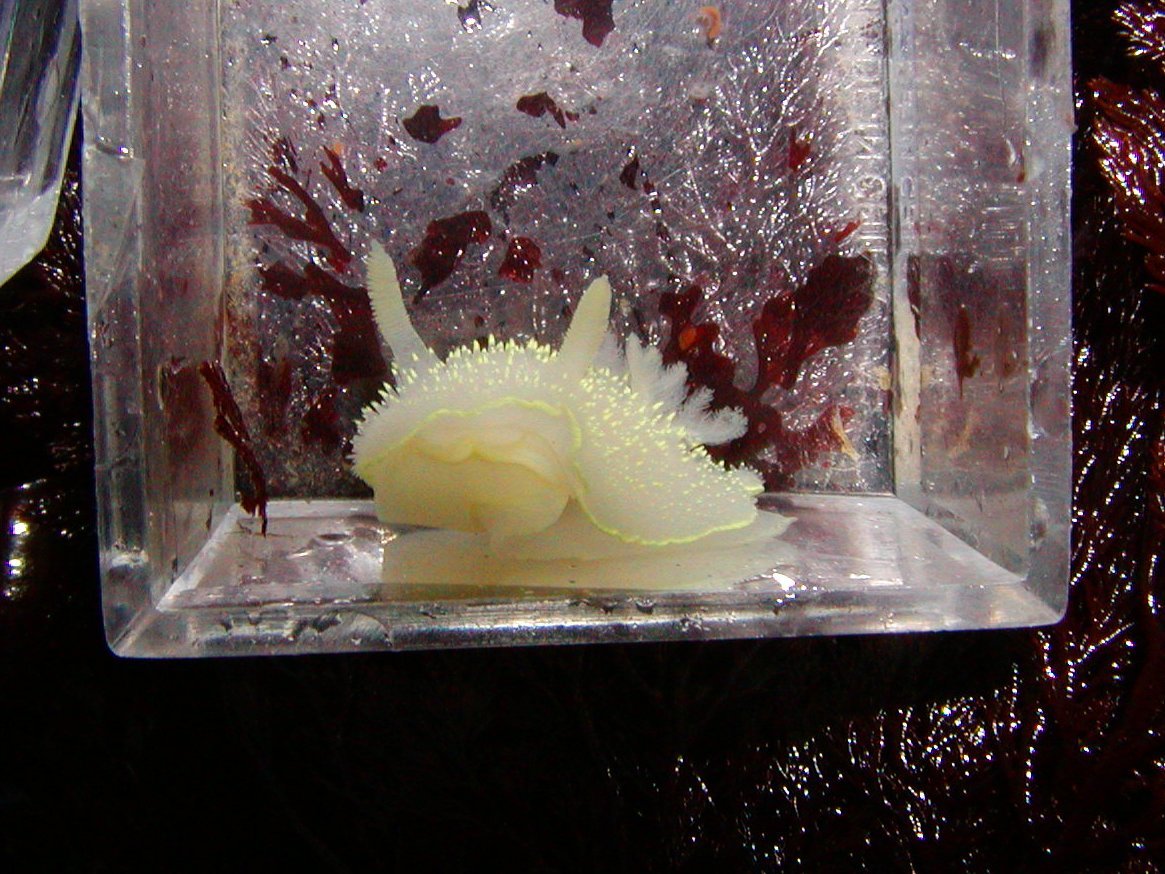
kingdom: Animalia
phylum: Mollusca
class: Gastropoda
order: Nudibranchia
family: Onchidorididae
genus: Acanthodoris
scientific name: Acanthodoris hudsoni
